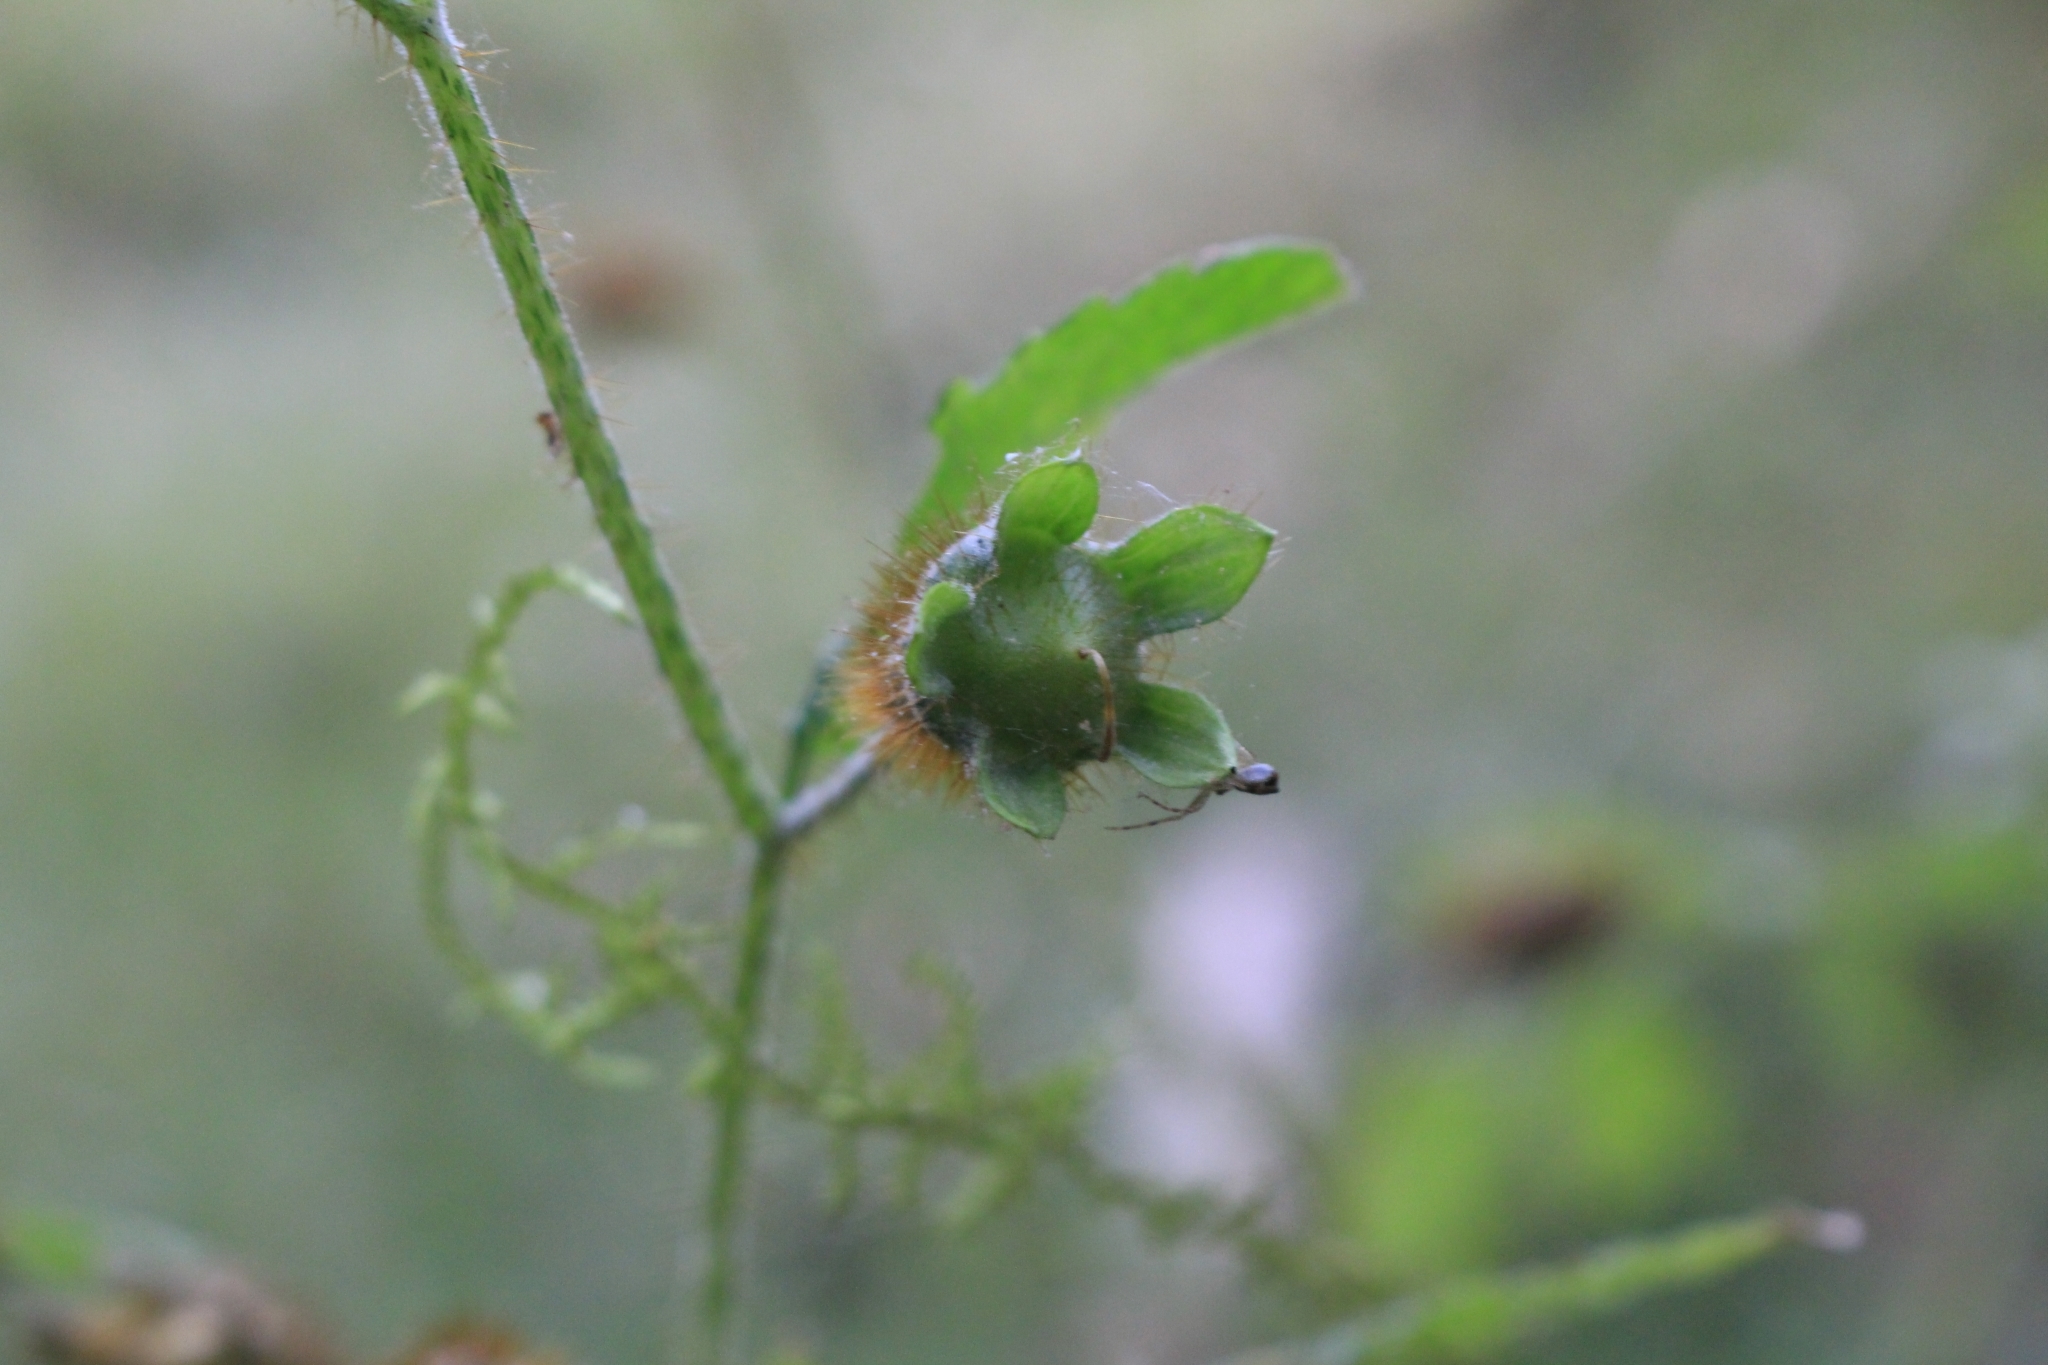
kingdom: Plantae
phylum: Tracheophyta
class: Magnoliopsida
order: Cornales
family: Loasaceae
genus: Nasa
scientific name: Nasa triphylla
